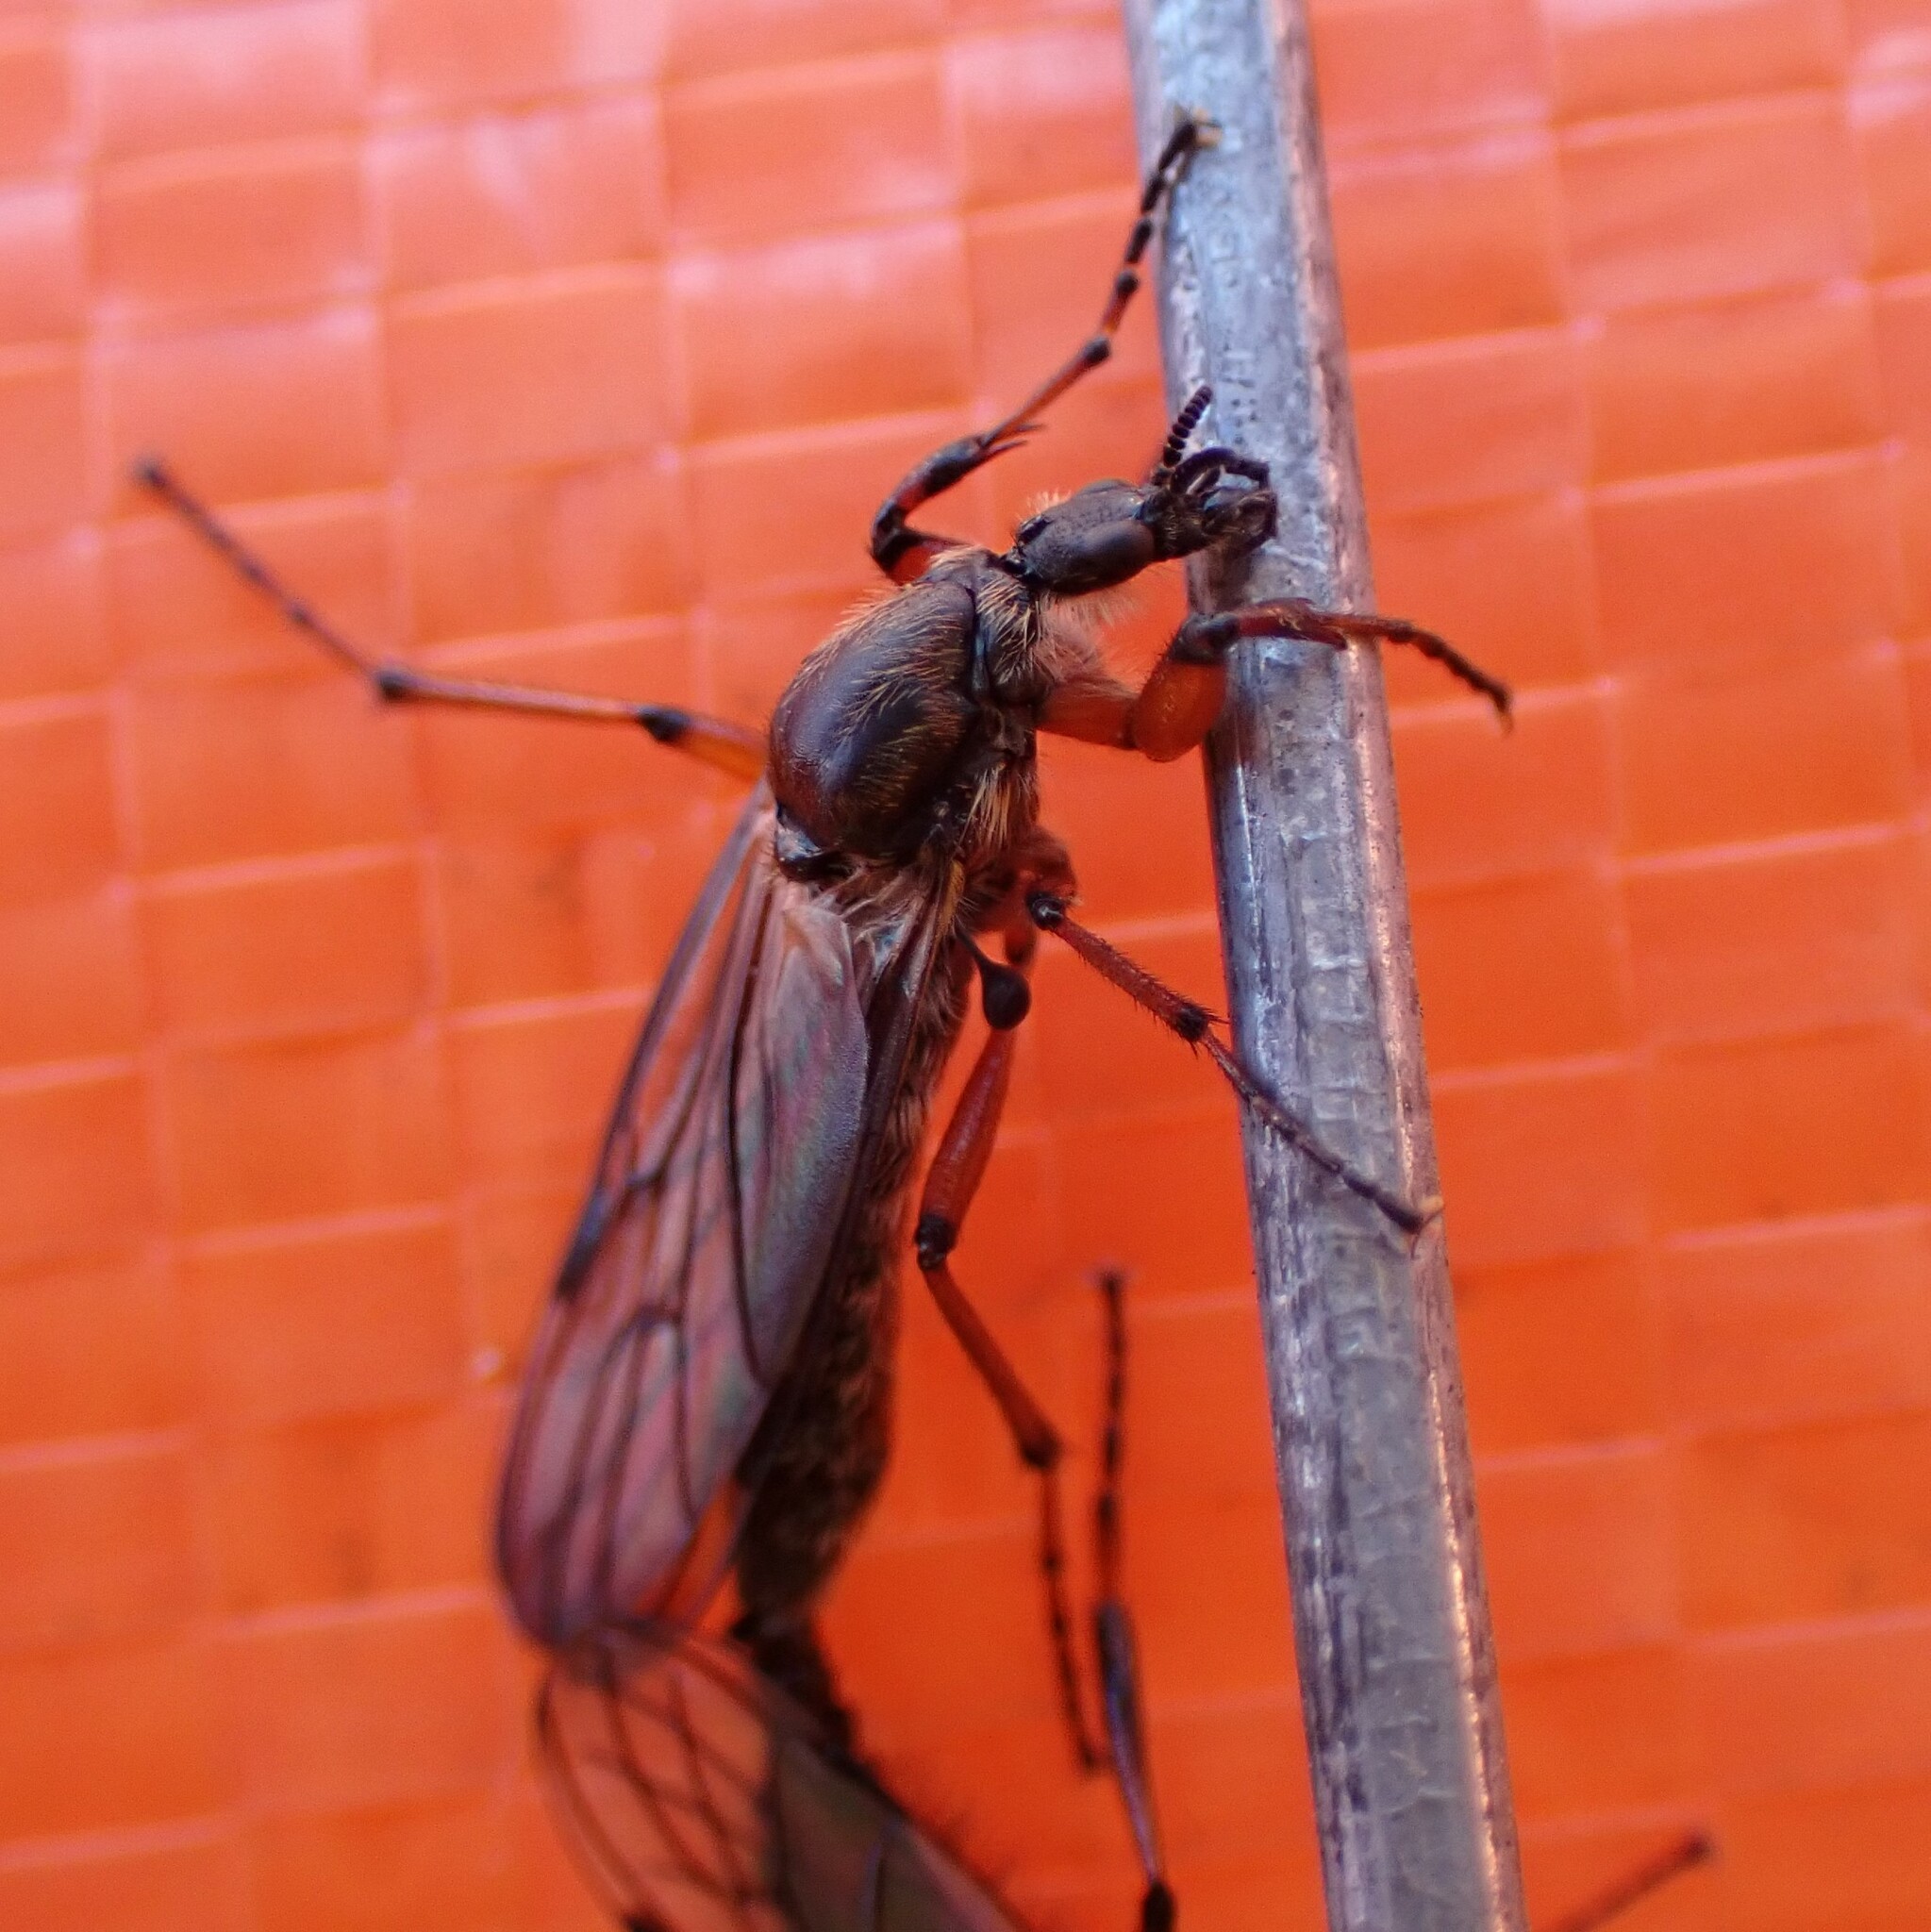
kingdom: Animalia
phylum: Arthropoda
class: Insecta
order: Diptera
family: Bibionidae
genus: Bibio
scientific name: Bibio xanthopus
